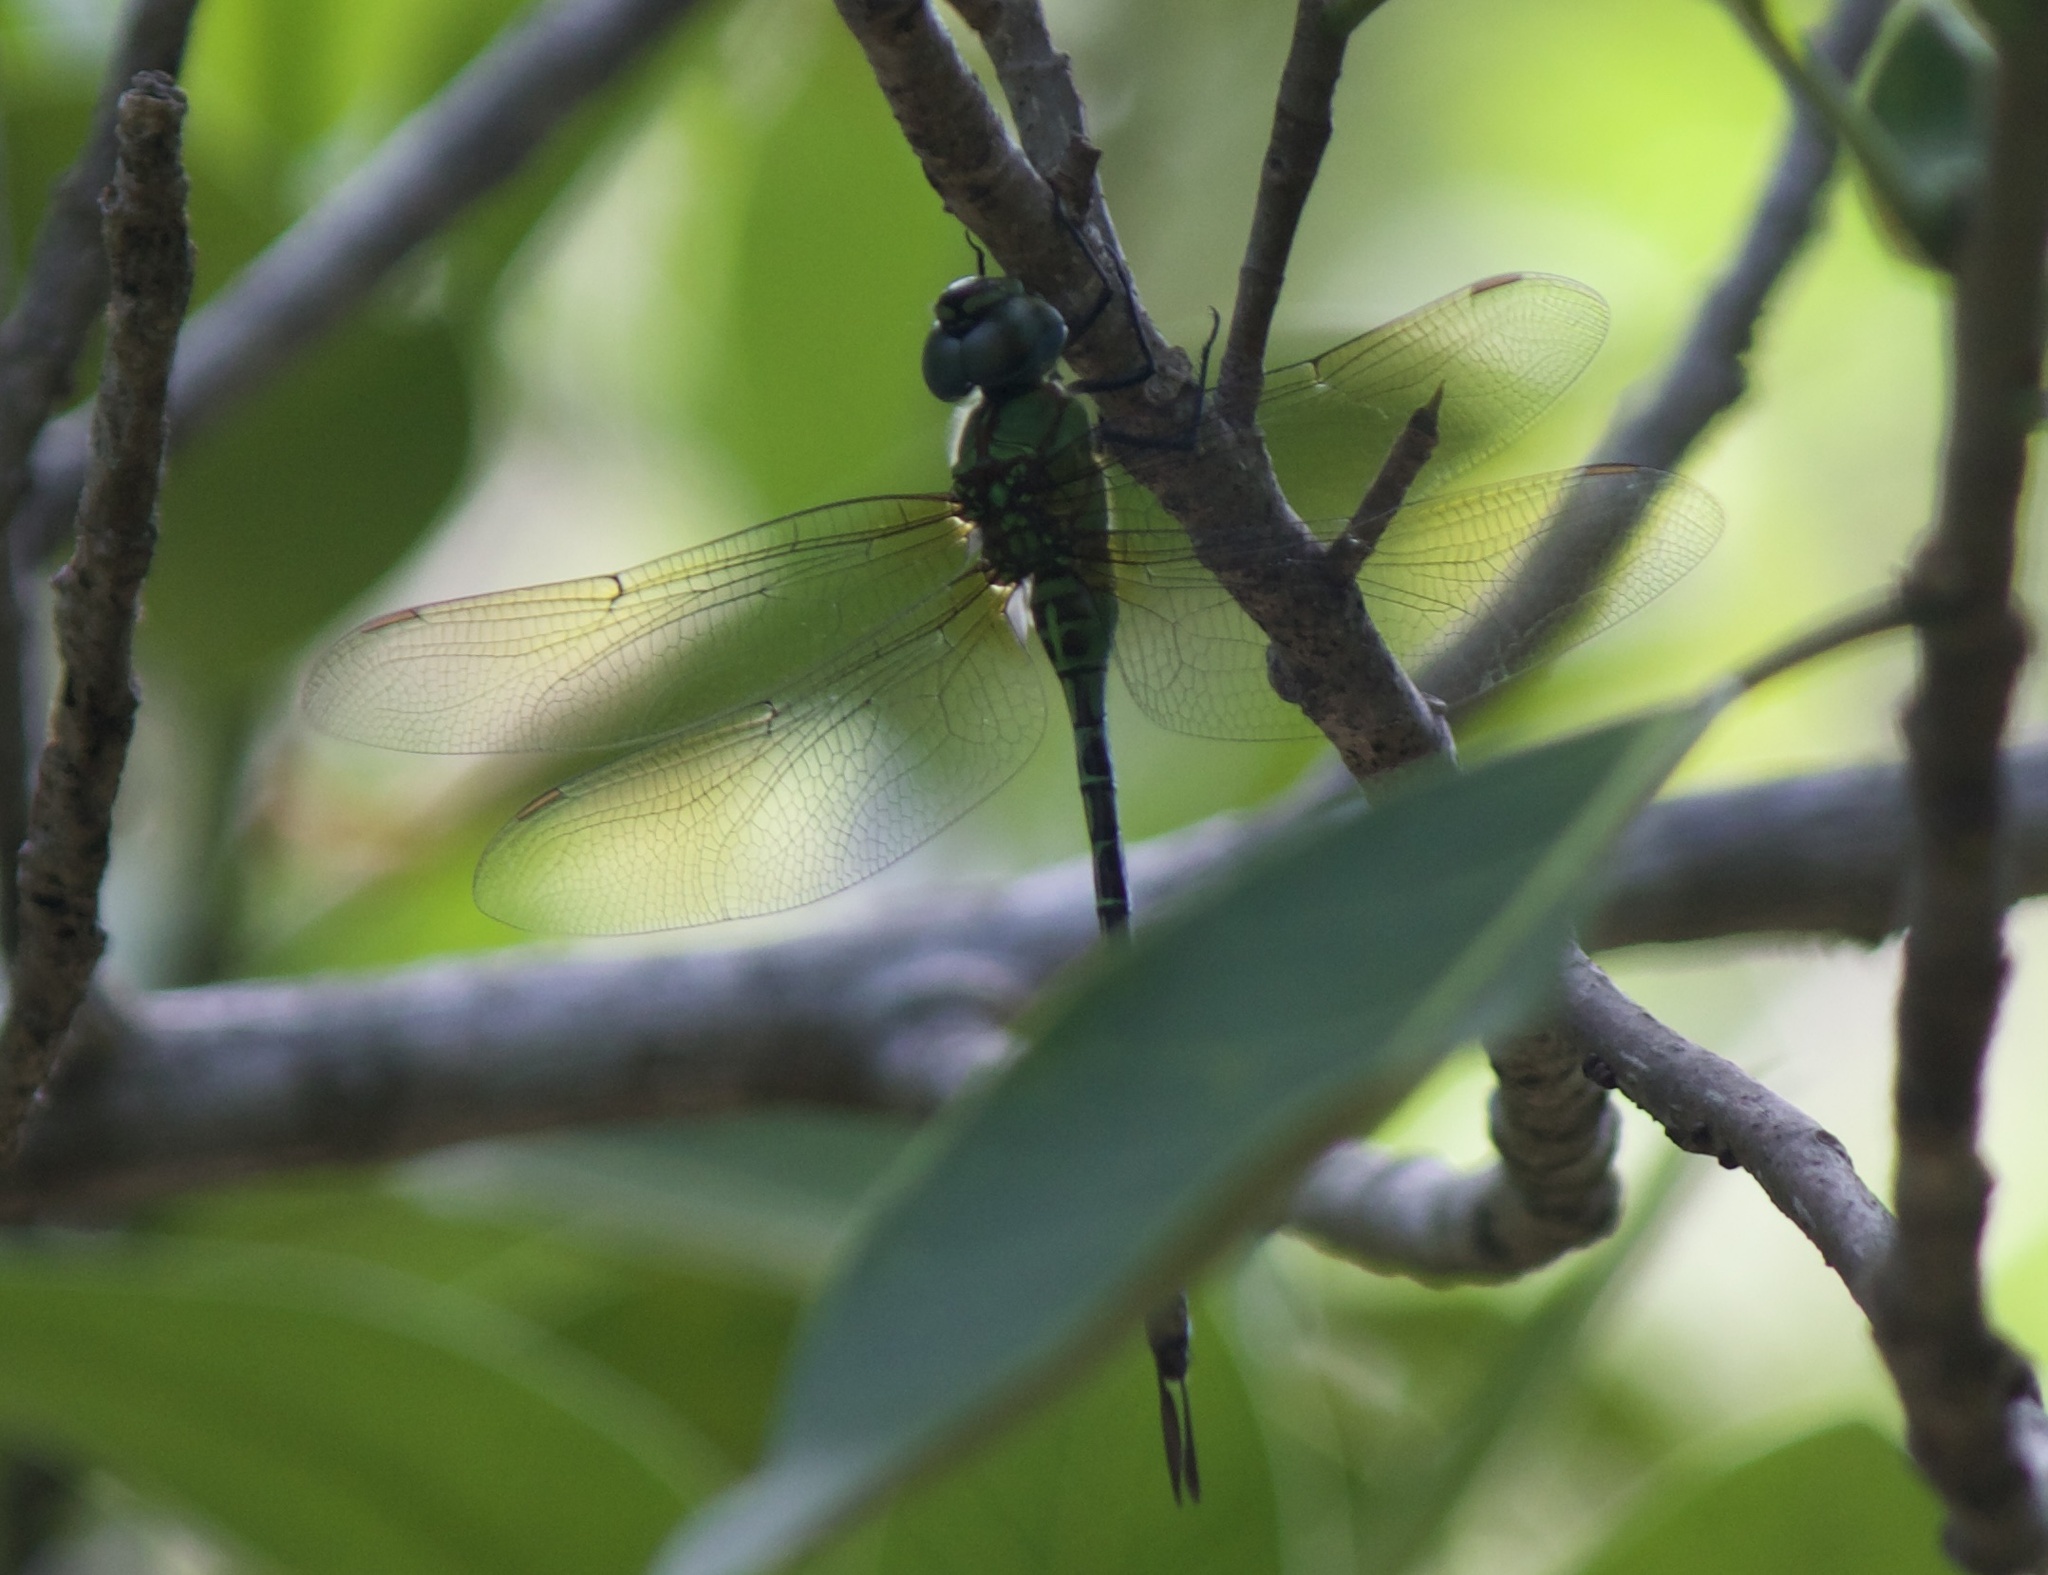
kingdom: Animalia
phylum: Arthropoda
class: Insecta
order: Odonata
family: Aeshnidae
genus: Coryphaeschna
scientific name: Coryphaeschna adnexa
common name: Blue-faced darner
